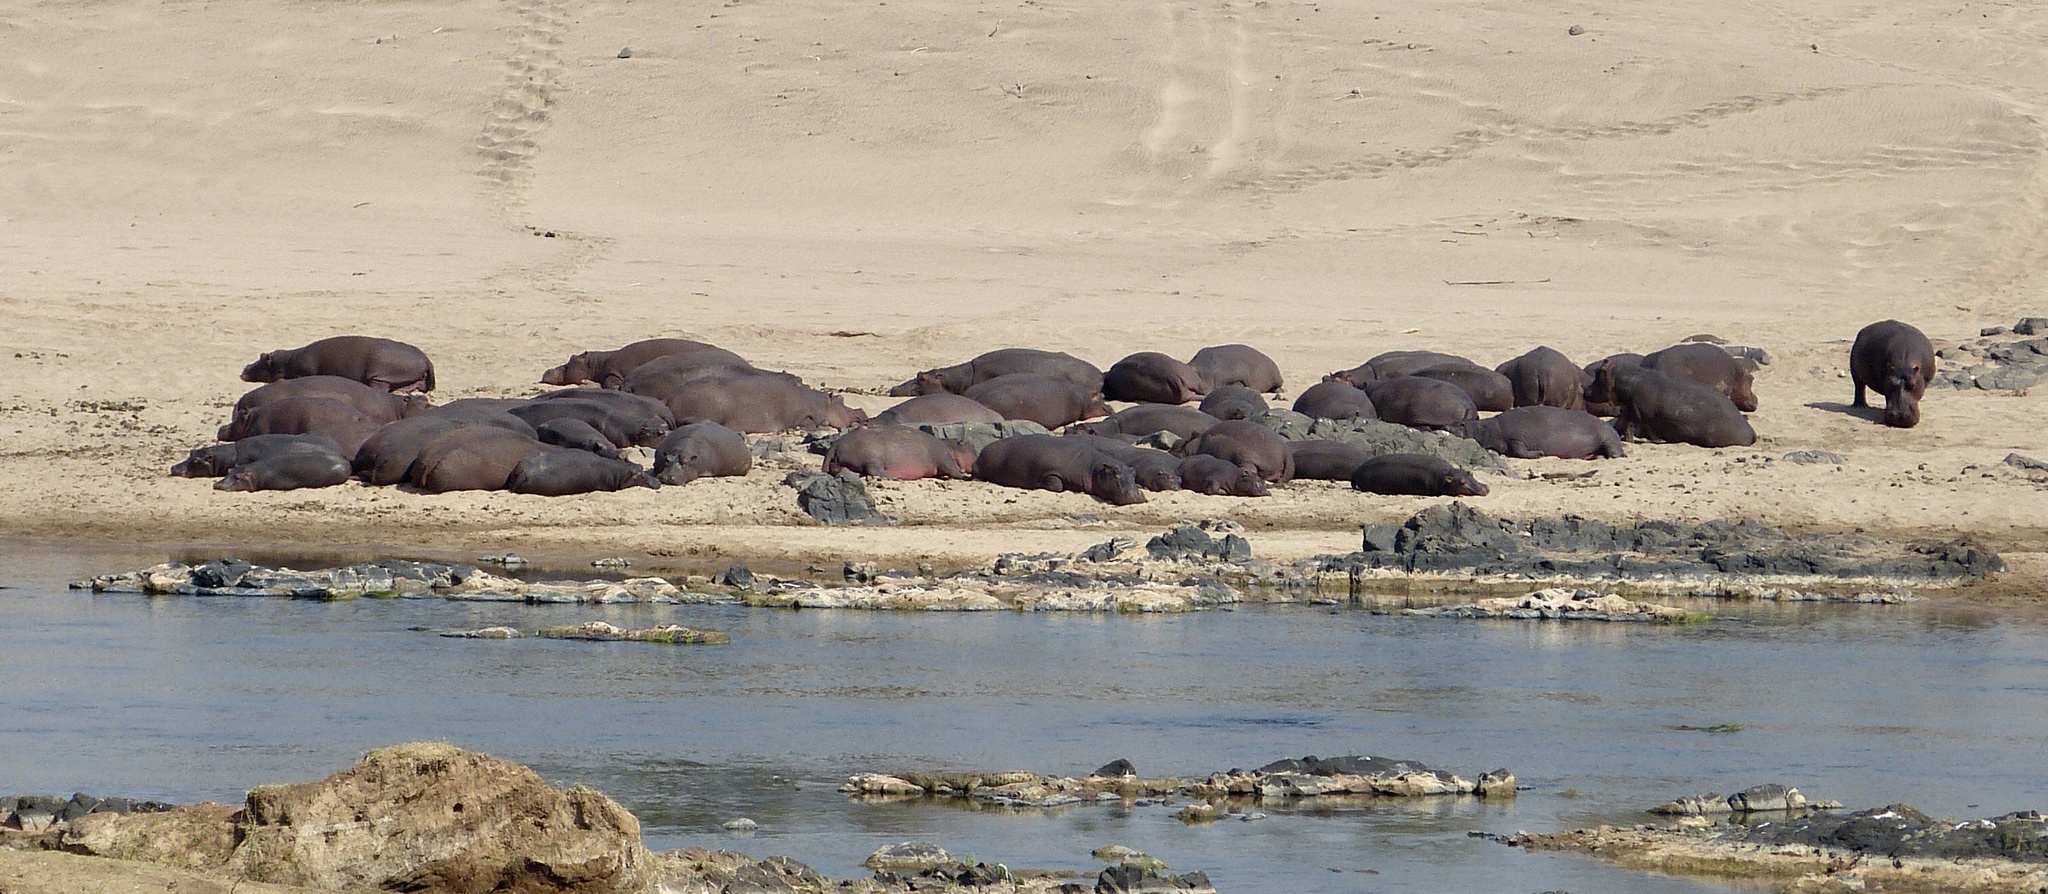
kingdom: Animalia
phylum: Chordata
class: Mammalia
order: Artiodactyla
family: Hippopotamidae
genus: Hippopotamus
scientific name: Hippopotamus amphibius
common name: Common hippopotamus
